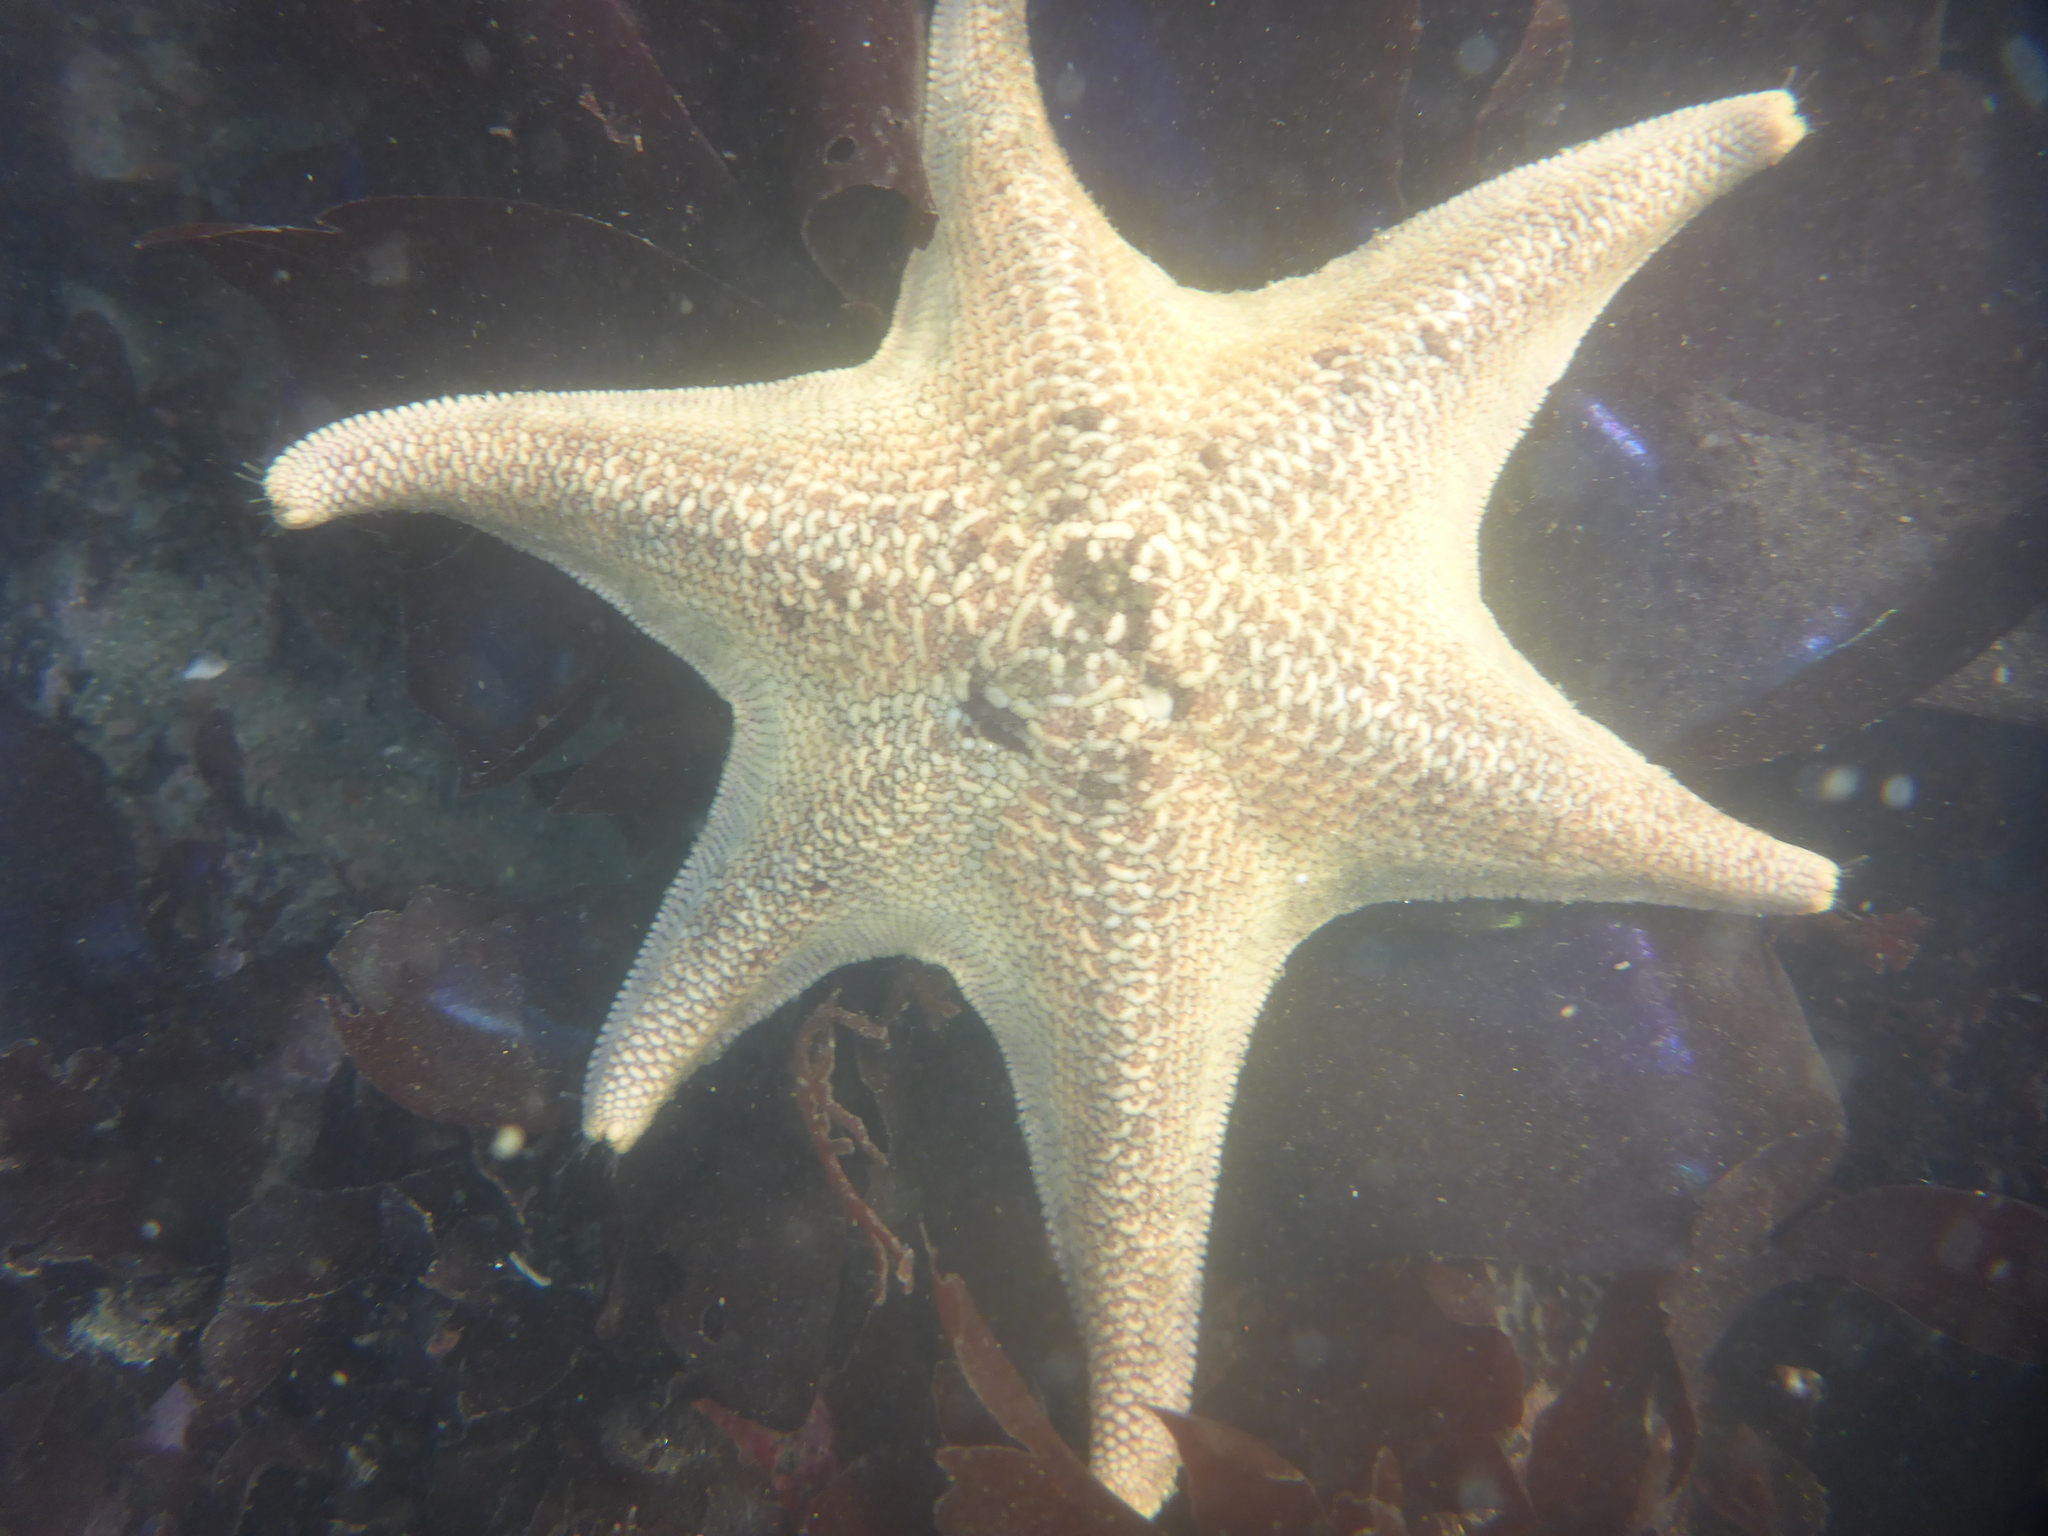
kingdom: Animalia
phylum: Echinodermata
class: Asteroidea
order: Valvatida
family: Asterinidae
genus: Patiria
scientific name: Patiria miniata
